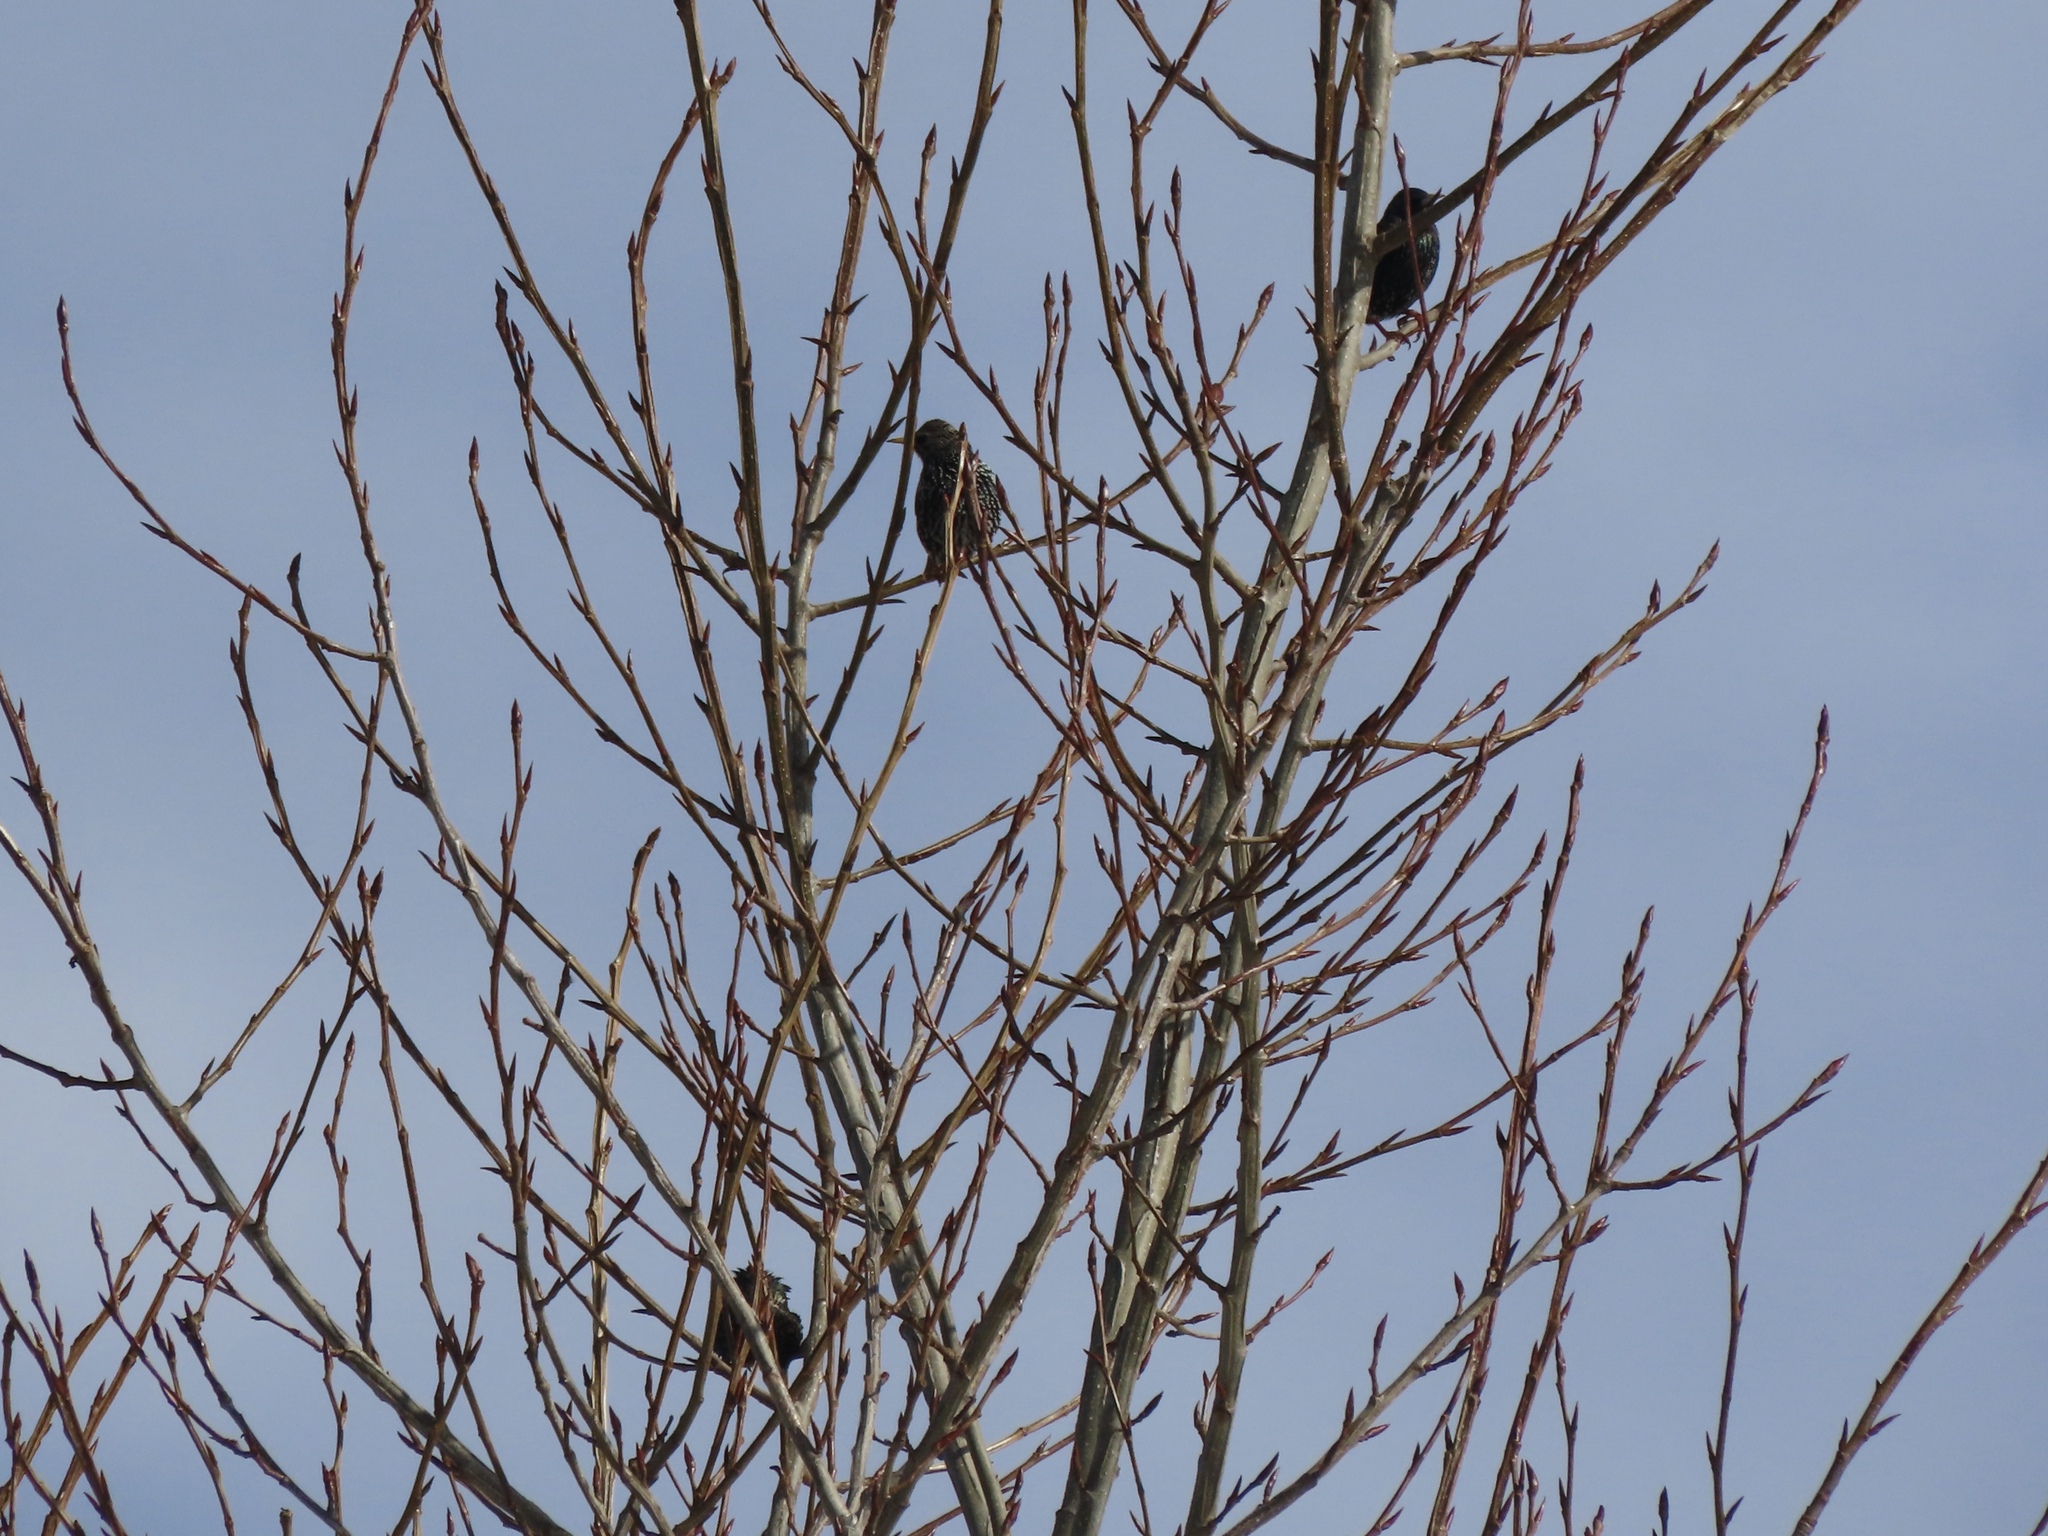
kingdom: Animalia
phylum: Chordata
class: Aves
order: Passeriformes
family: Sturnidae
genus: Sturnus
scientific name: Sturnus vulgaris
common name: Common starling
